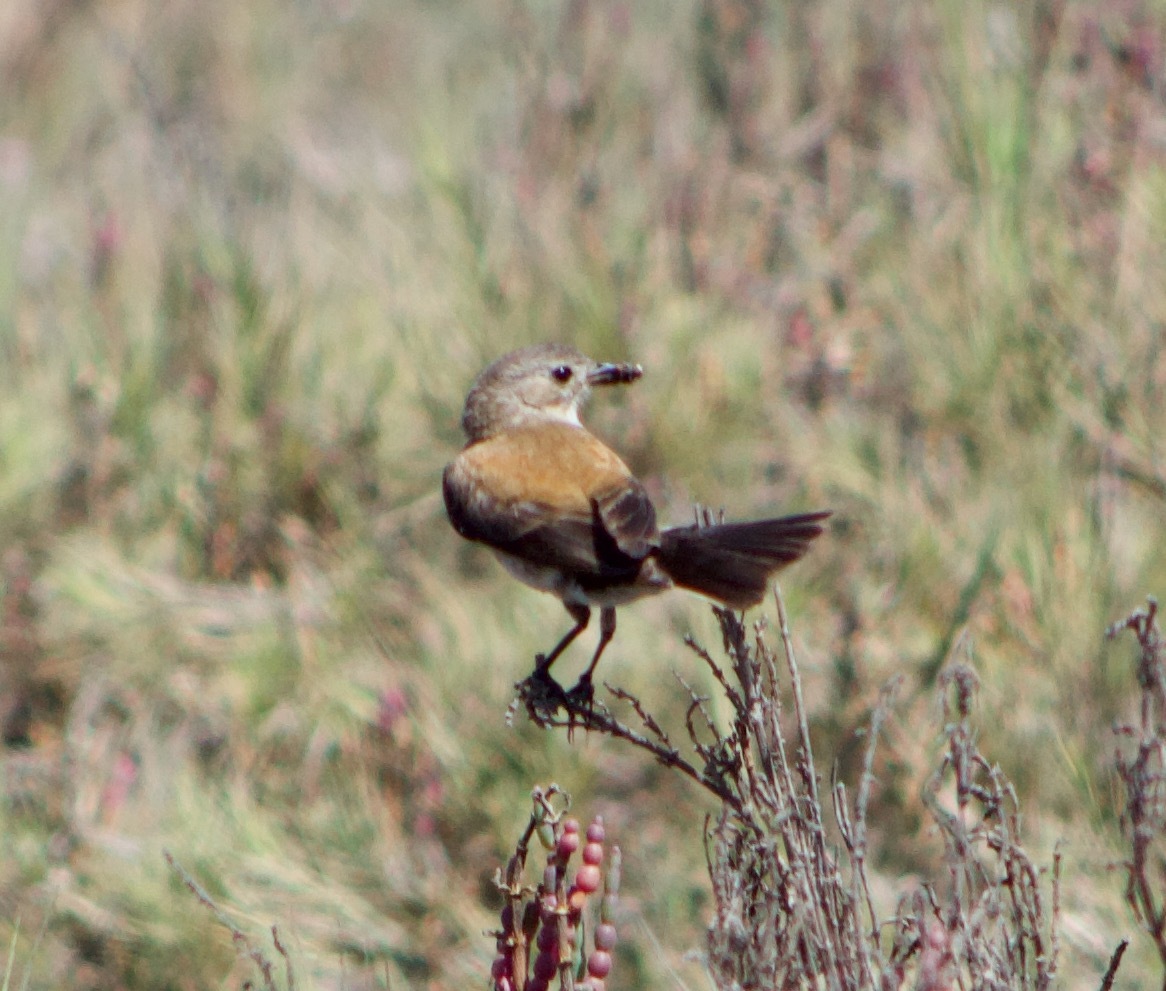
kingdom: Animalia
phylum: Chordata
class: Aves
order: Passeriformes
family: Tyrannidae
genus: Lessonia
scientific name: Lessonia rufa
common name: Austral negrito
